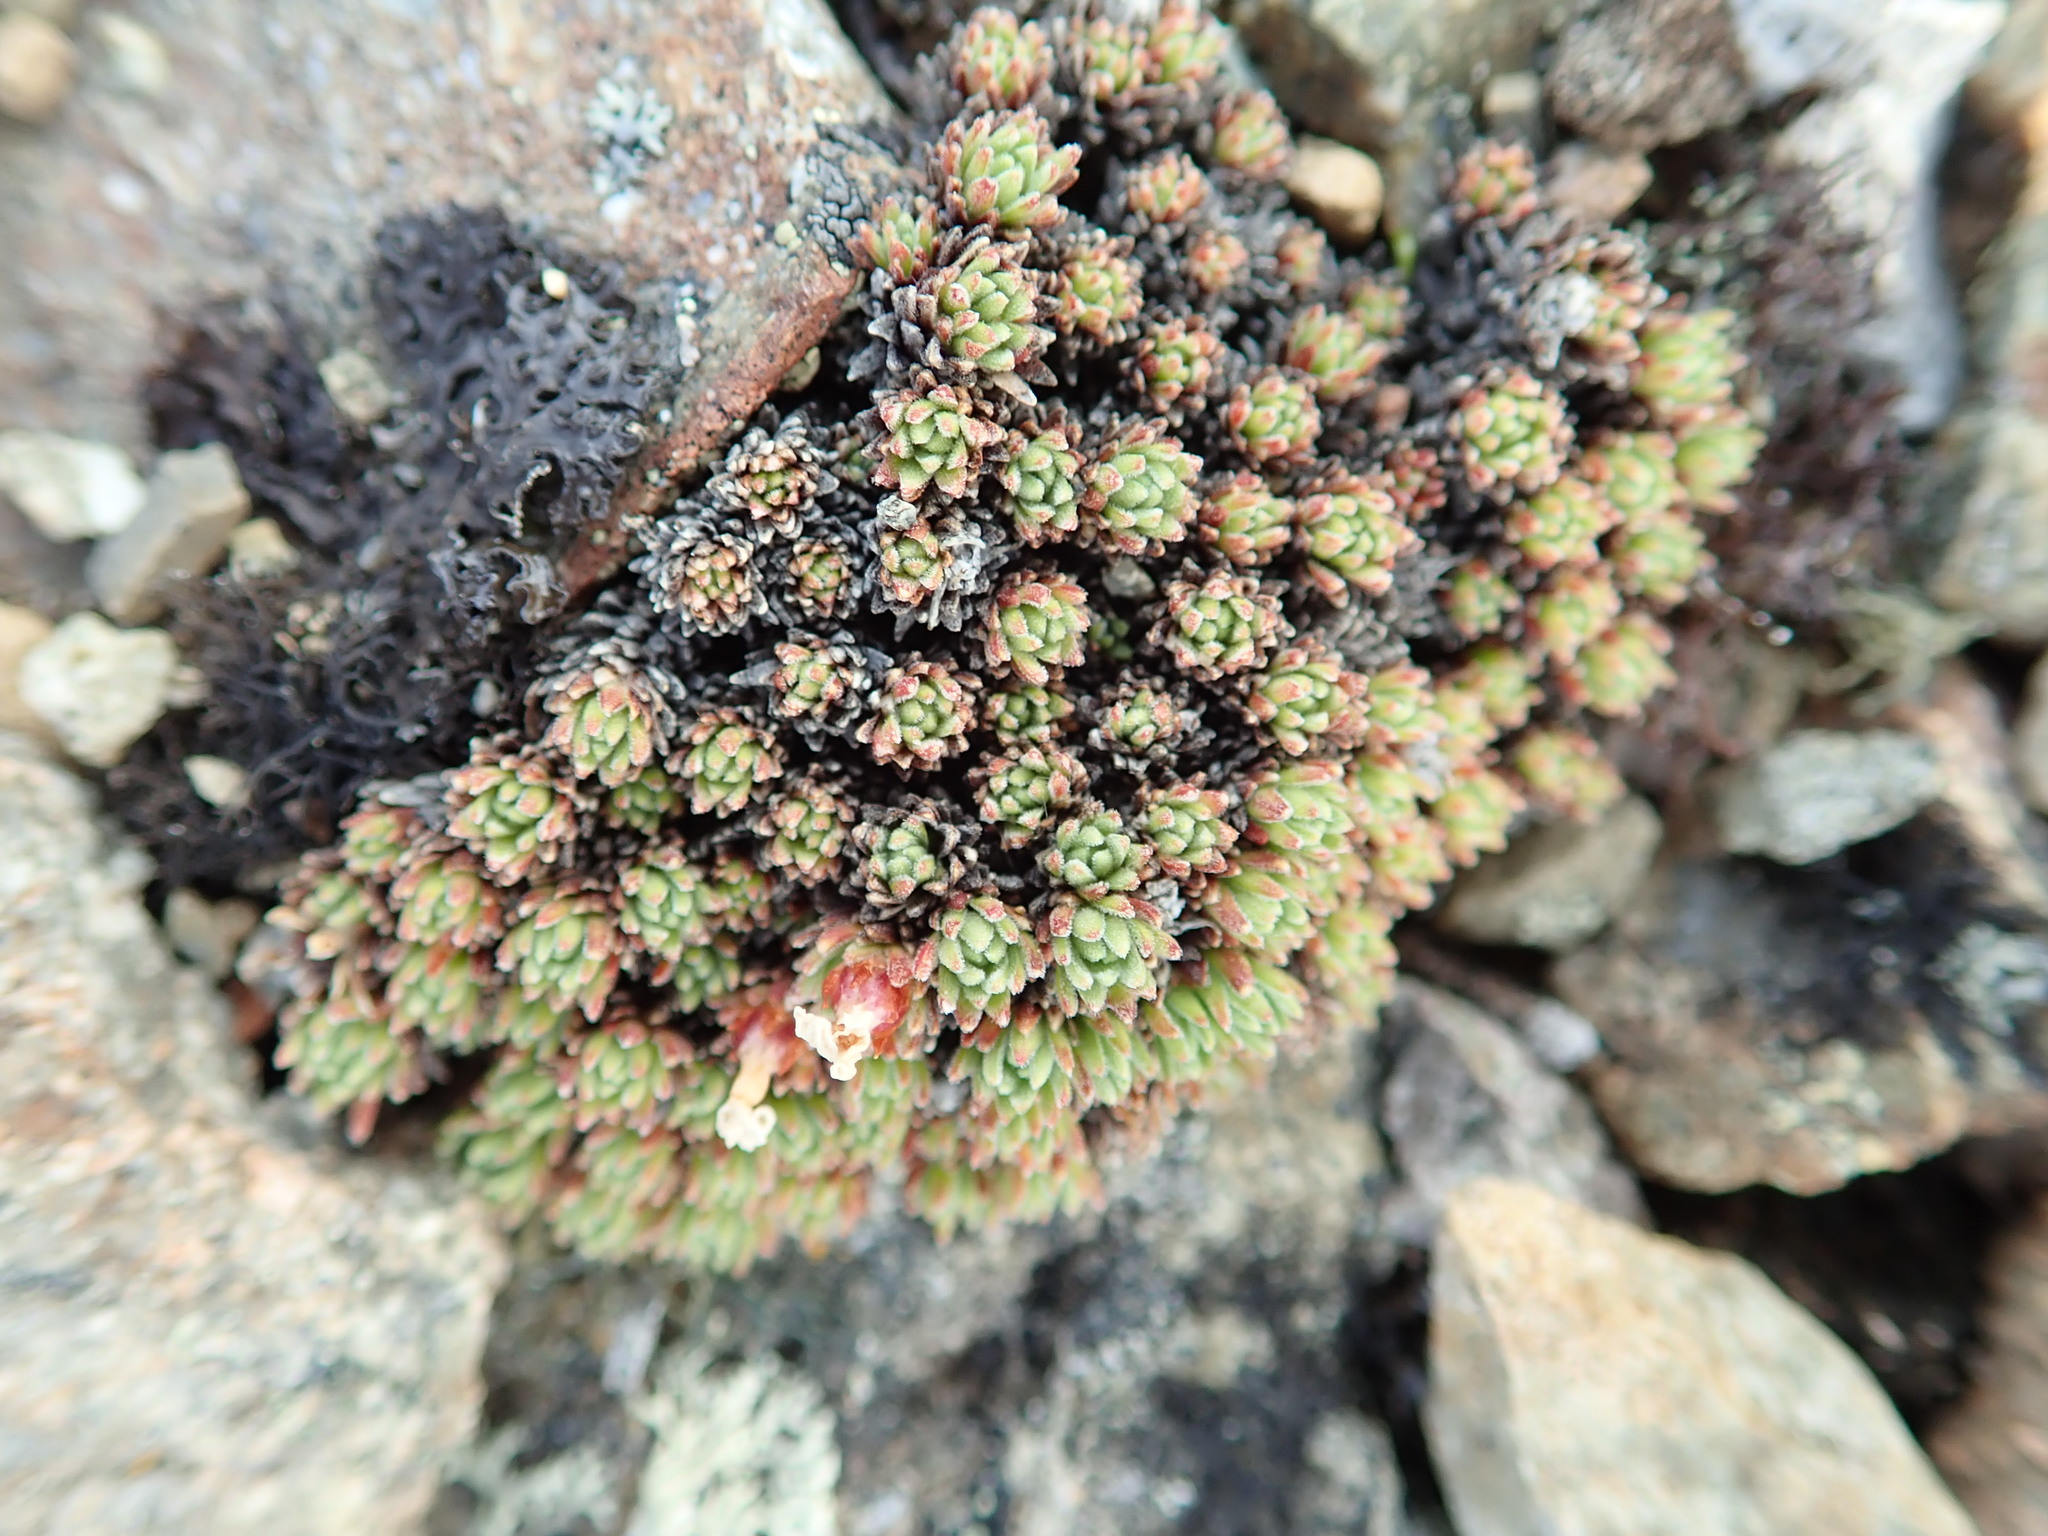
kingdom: Plantae
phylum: Tracheophyta
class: Magnoliopsida
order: Ericales
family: Primulaceae
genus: Androsace
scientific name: Androsace constancei
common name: Gorman's dwarf-primrose
